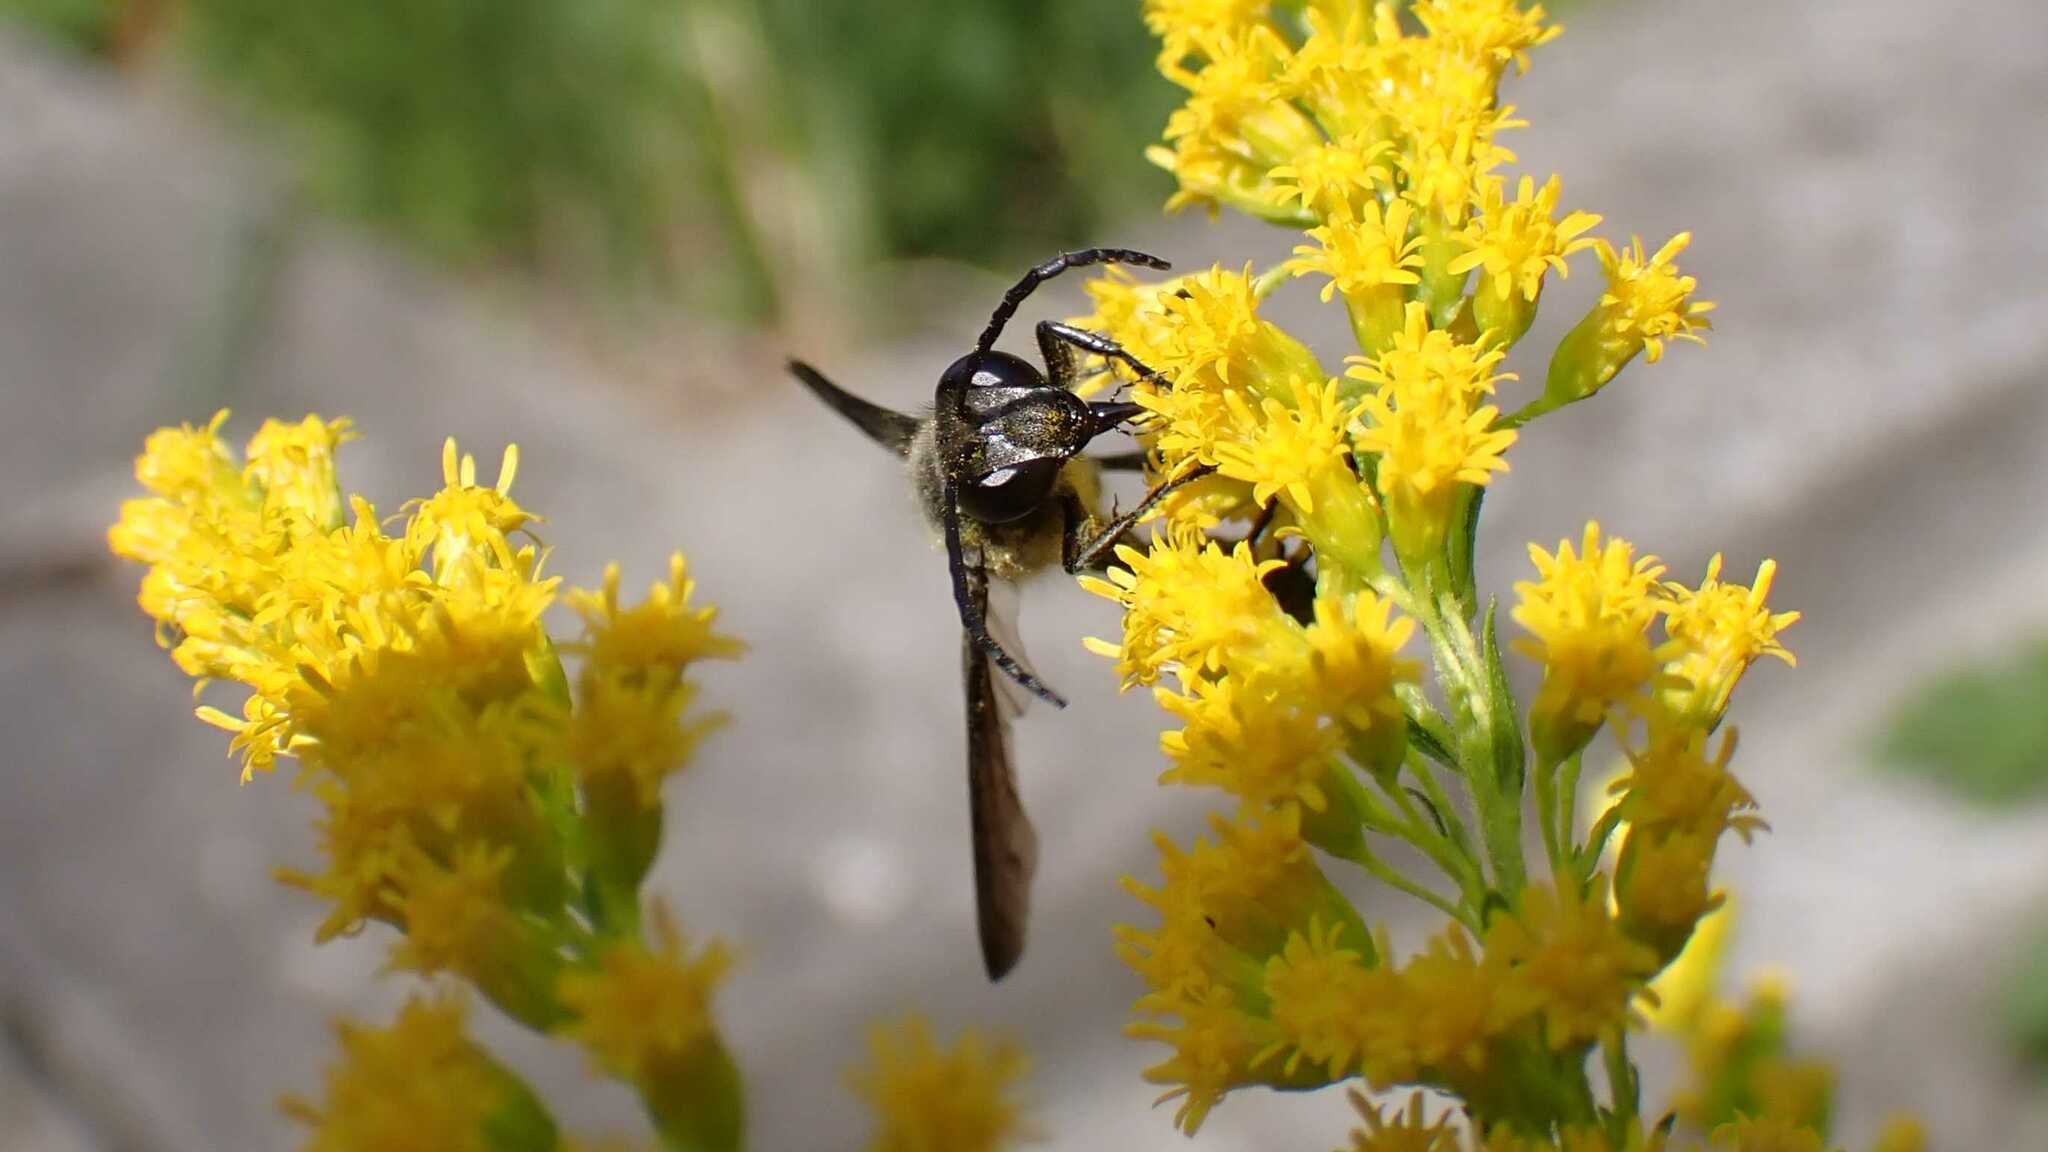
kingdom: Animalia
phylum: Arthropoda
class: Insecta
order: Hymenoptera
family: Sphecidae
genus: Isodontia
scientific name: Isodontia mexicana
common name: Mud dauber
